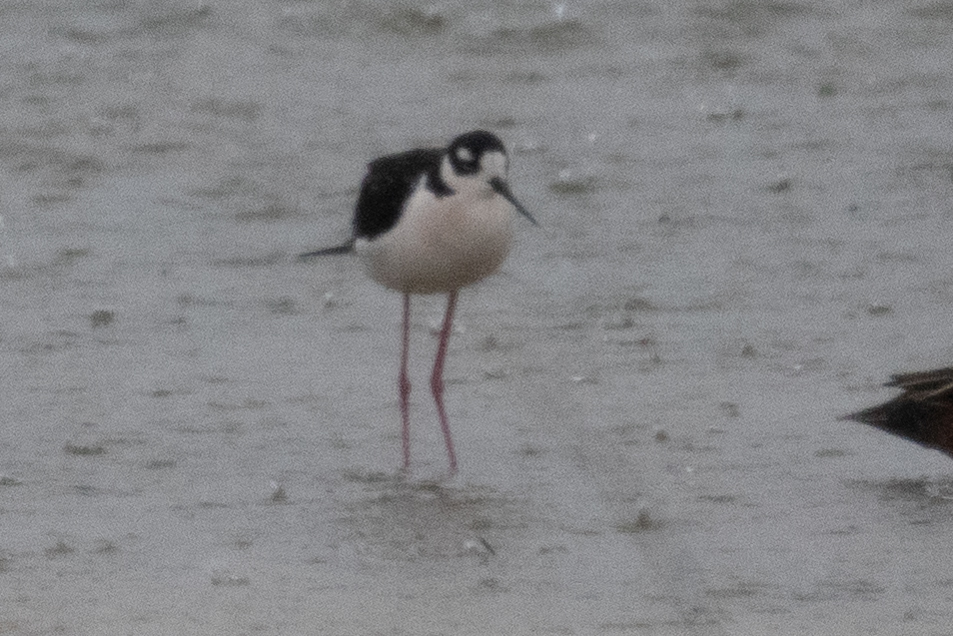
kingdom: Animalia
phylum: Chordata
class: Aves
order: Charadriiformes
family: Recurvirostridae
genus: Himantopus
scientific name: Himantopus mexicanus
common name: Black-necked stilt
